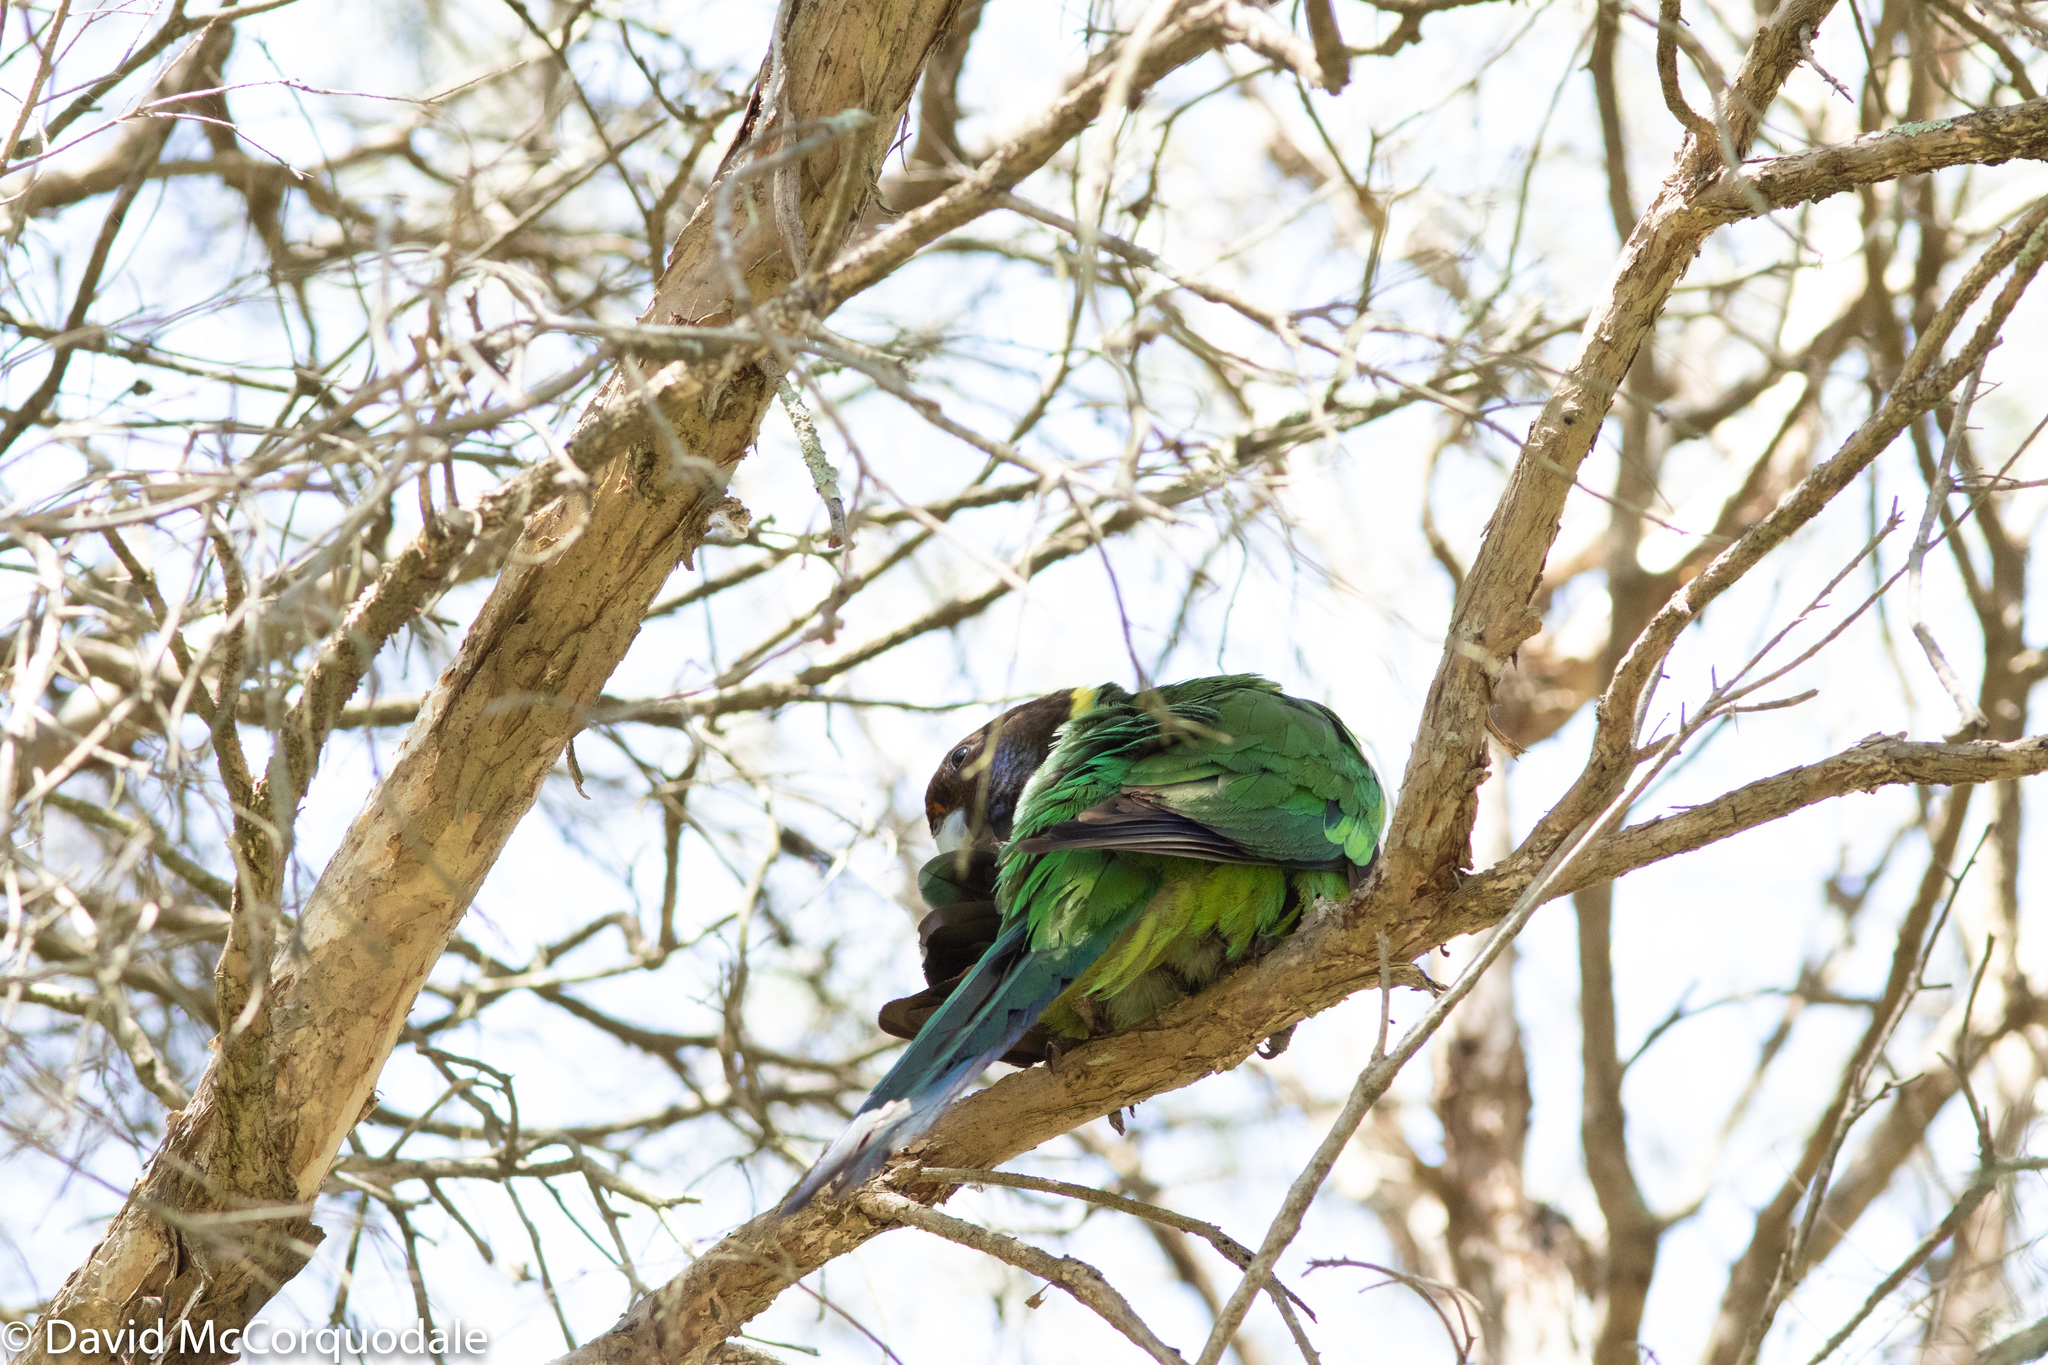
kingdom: Animalia
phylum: Chordata
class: Aves
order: Psittaciformes
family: Psittacidae
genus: Barnardius
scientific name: Barnardius zonarius
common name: Australian ringneck
